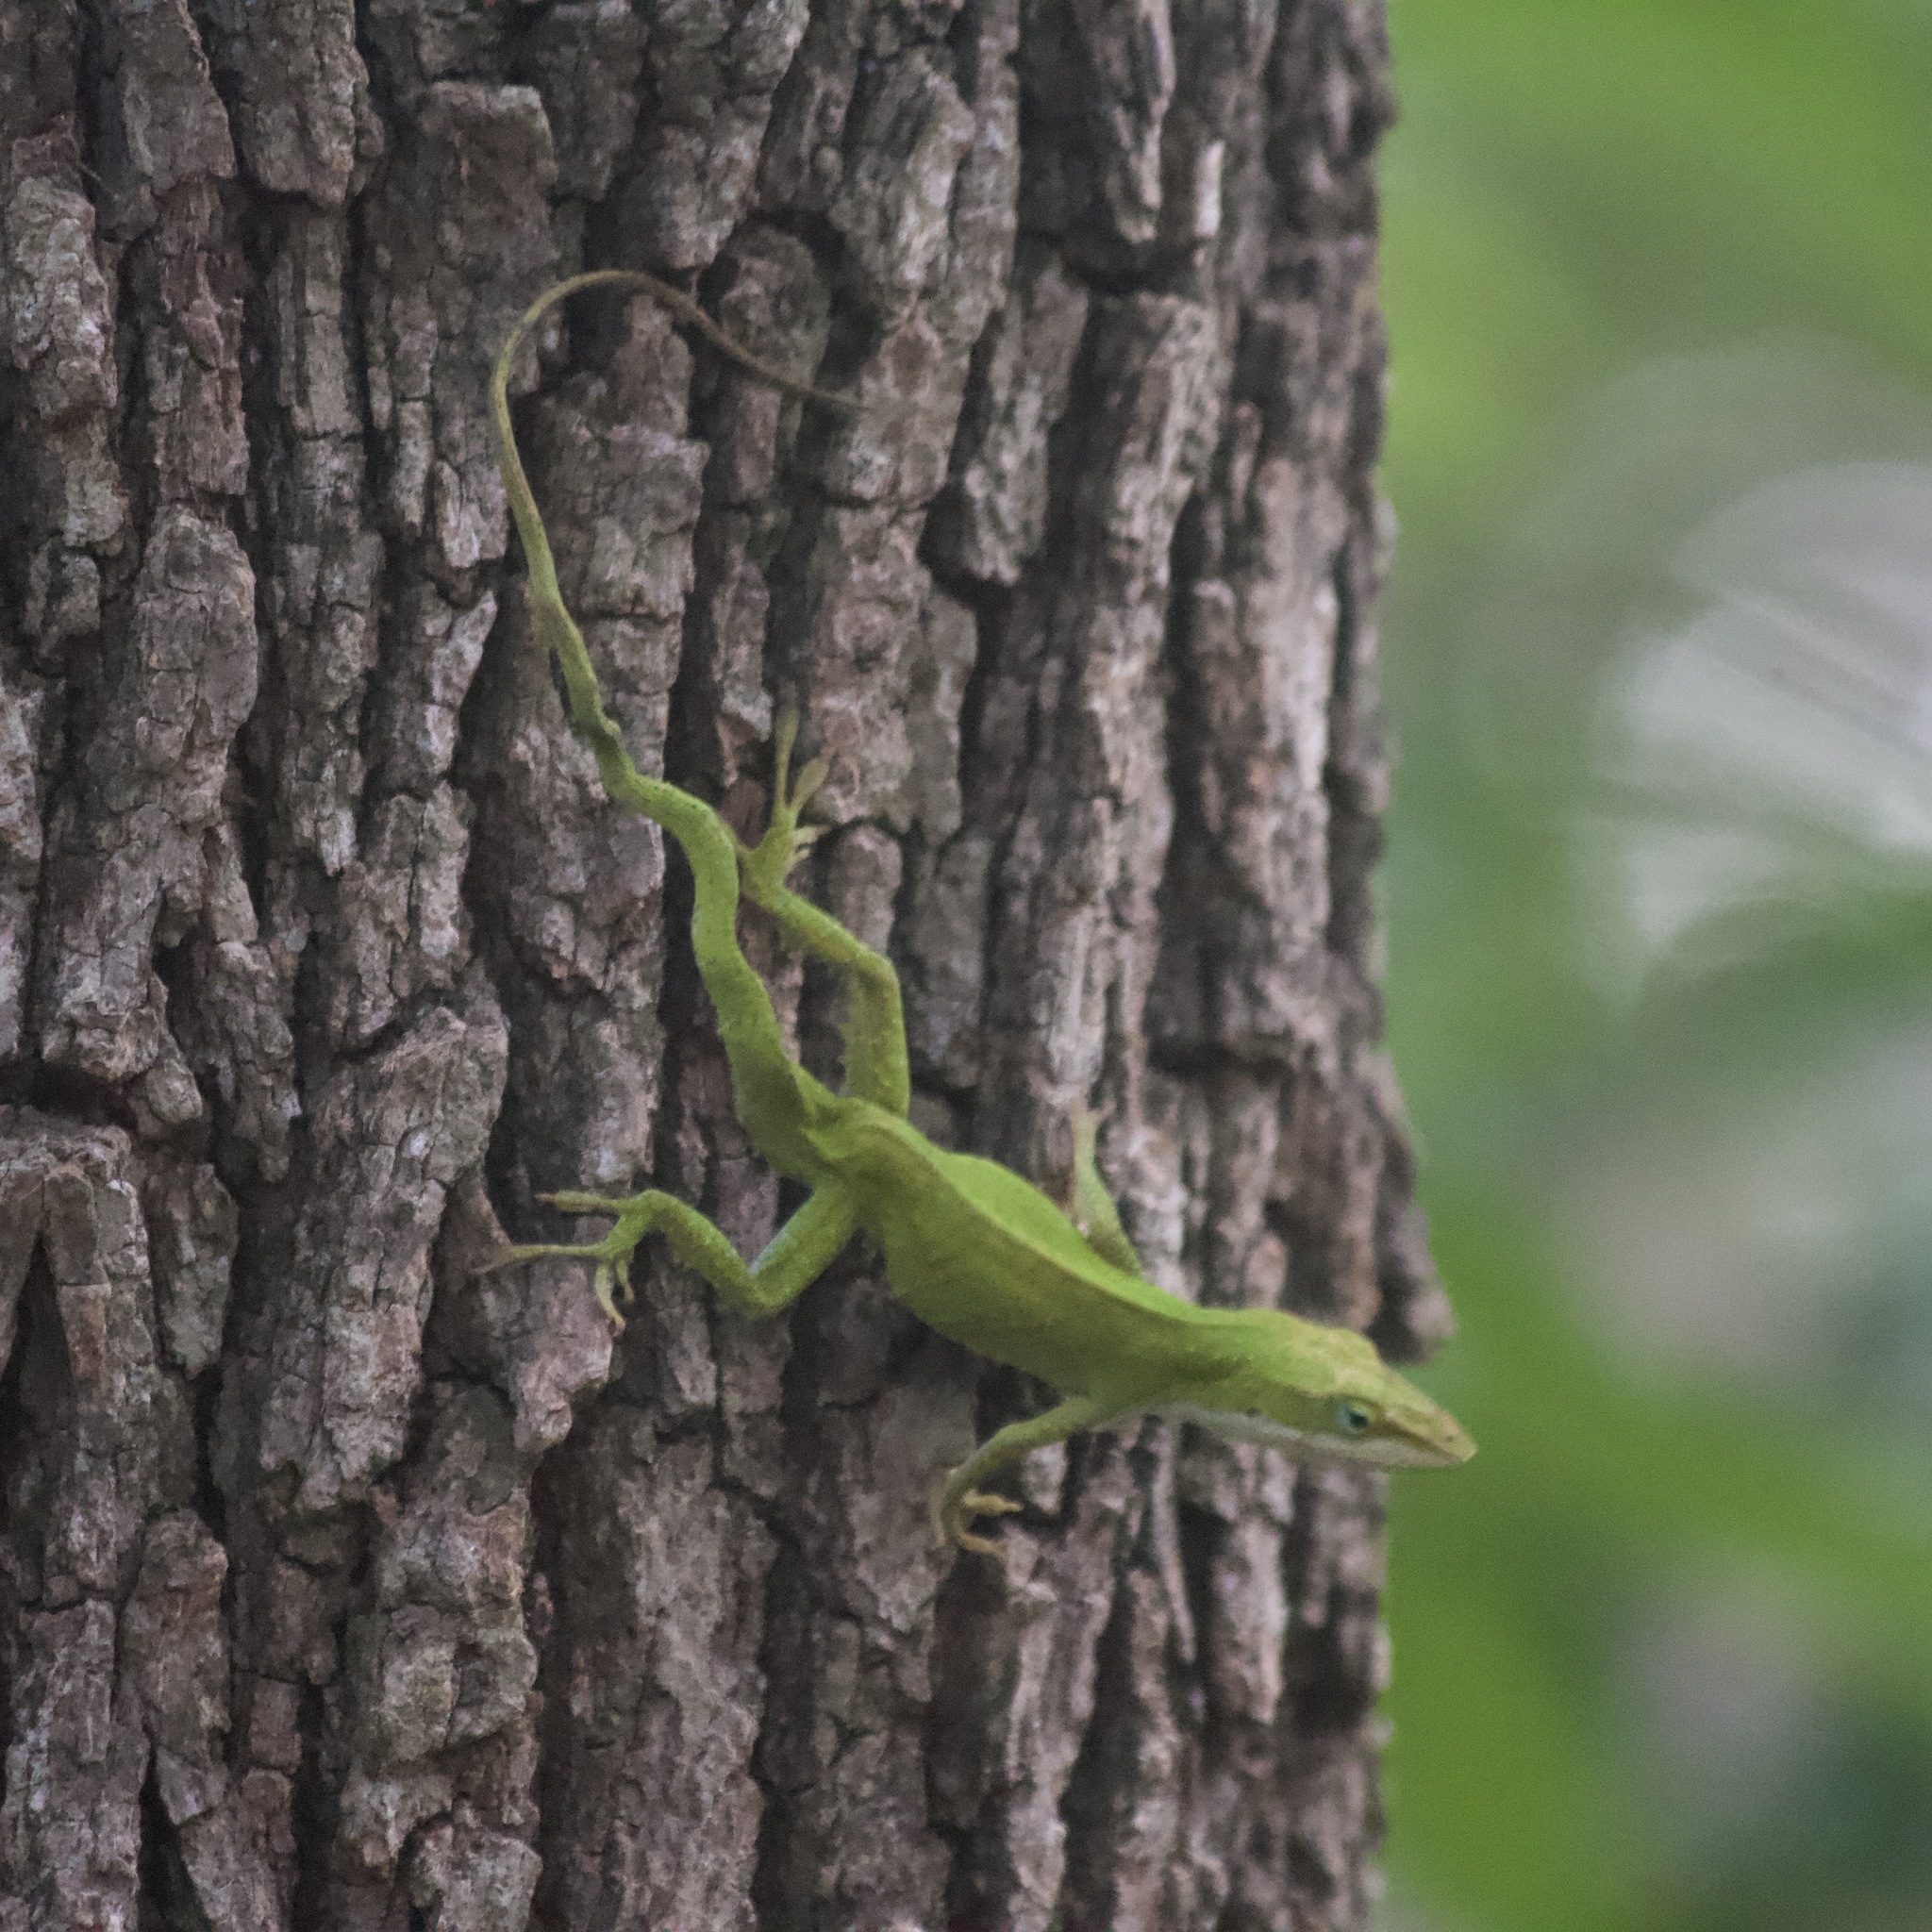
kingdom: Animalia
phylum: Chordata
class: Squamata
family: Dactyloidae
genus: Anolis
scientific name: Anolis carolinensis
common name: Green anole
